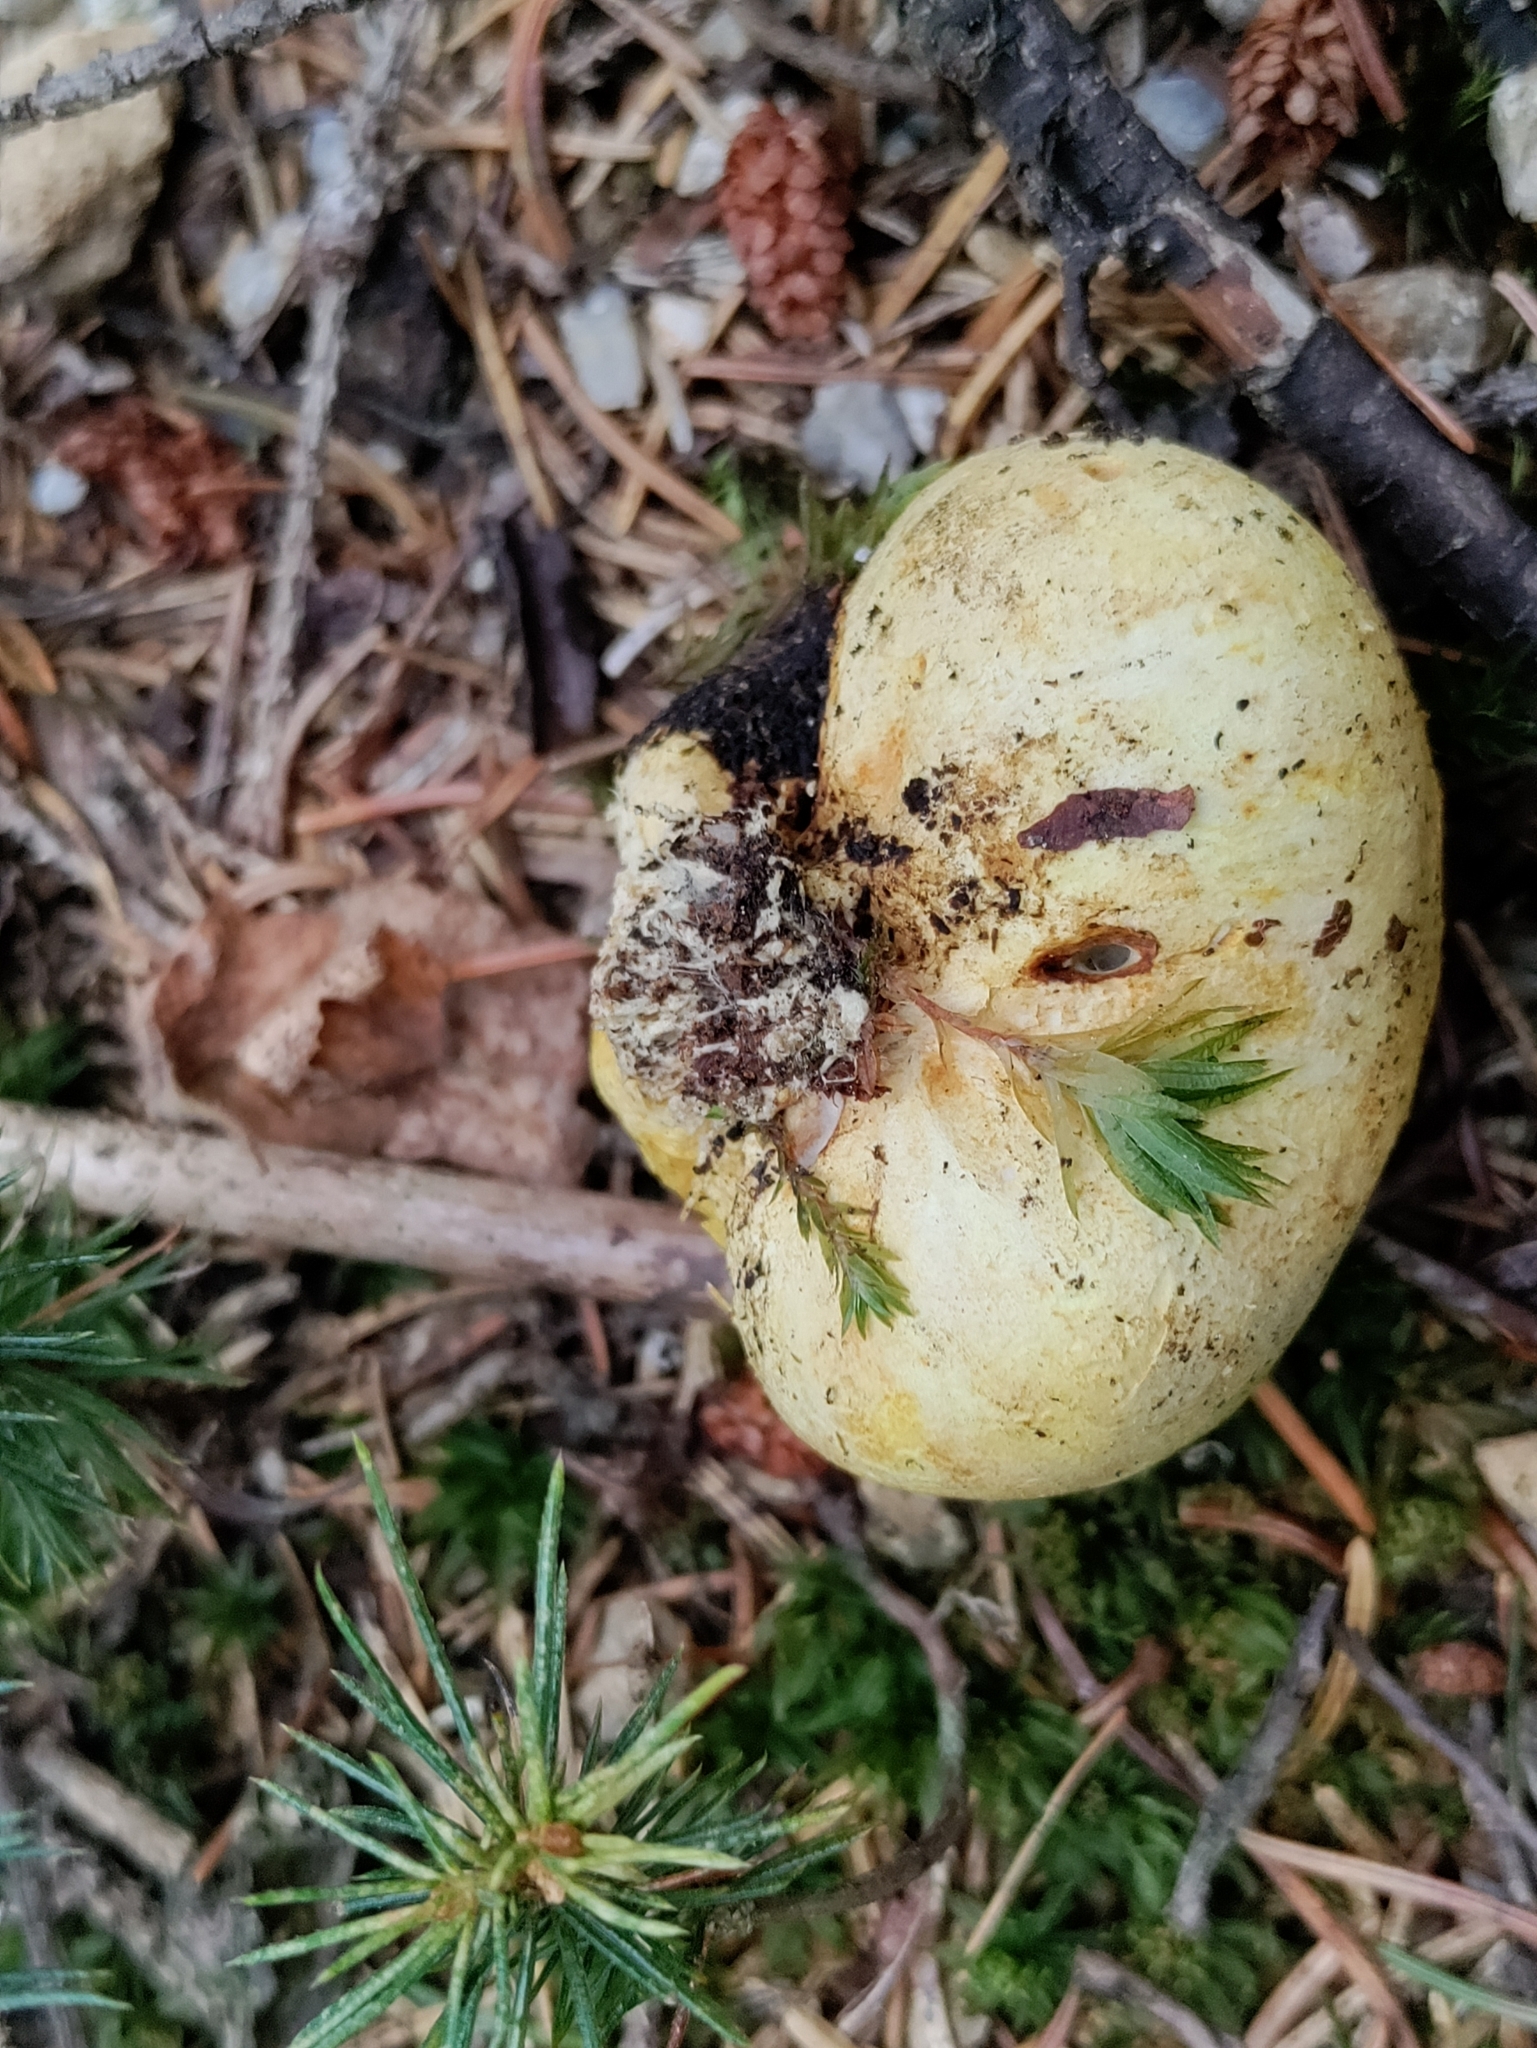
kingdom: Fungi
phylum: Basidiomycota
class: Agaricomycetes
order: Boletales
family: Sclerodermataceae
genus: Scleroderma
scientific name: Scleroderma citrinum
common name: Common earthball
